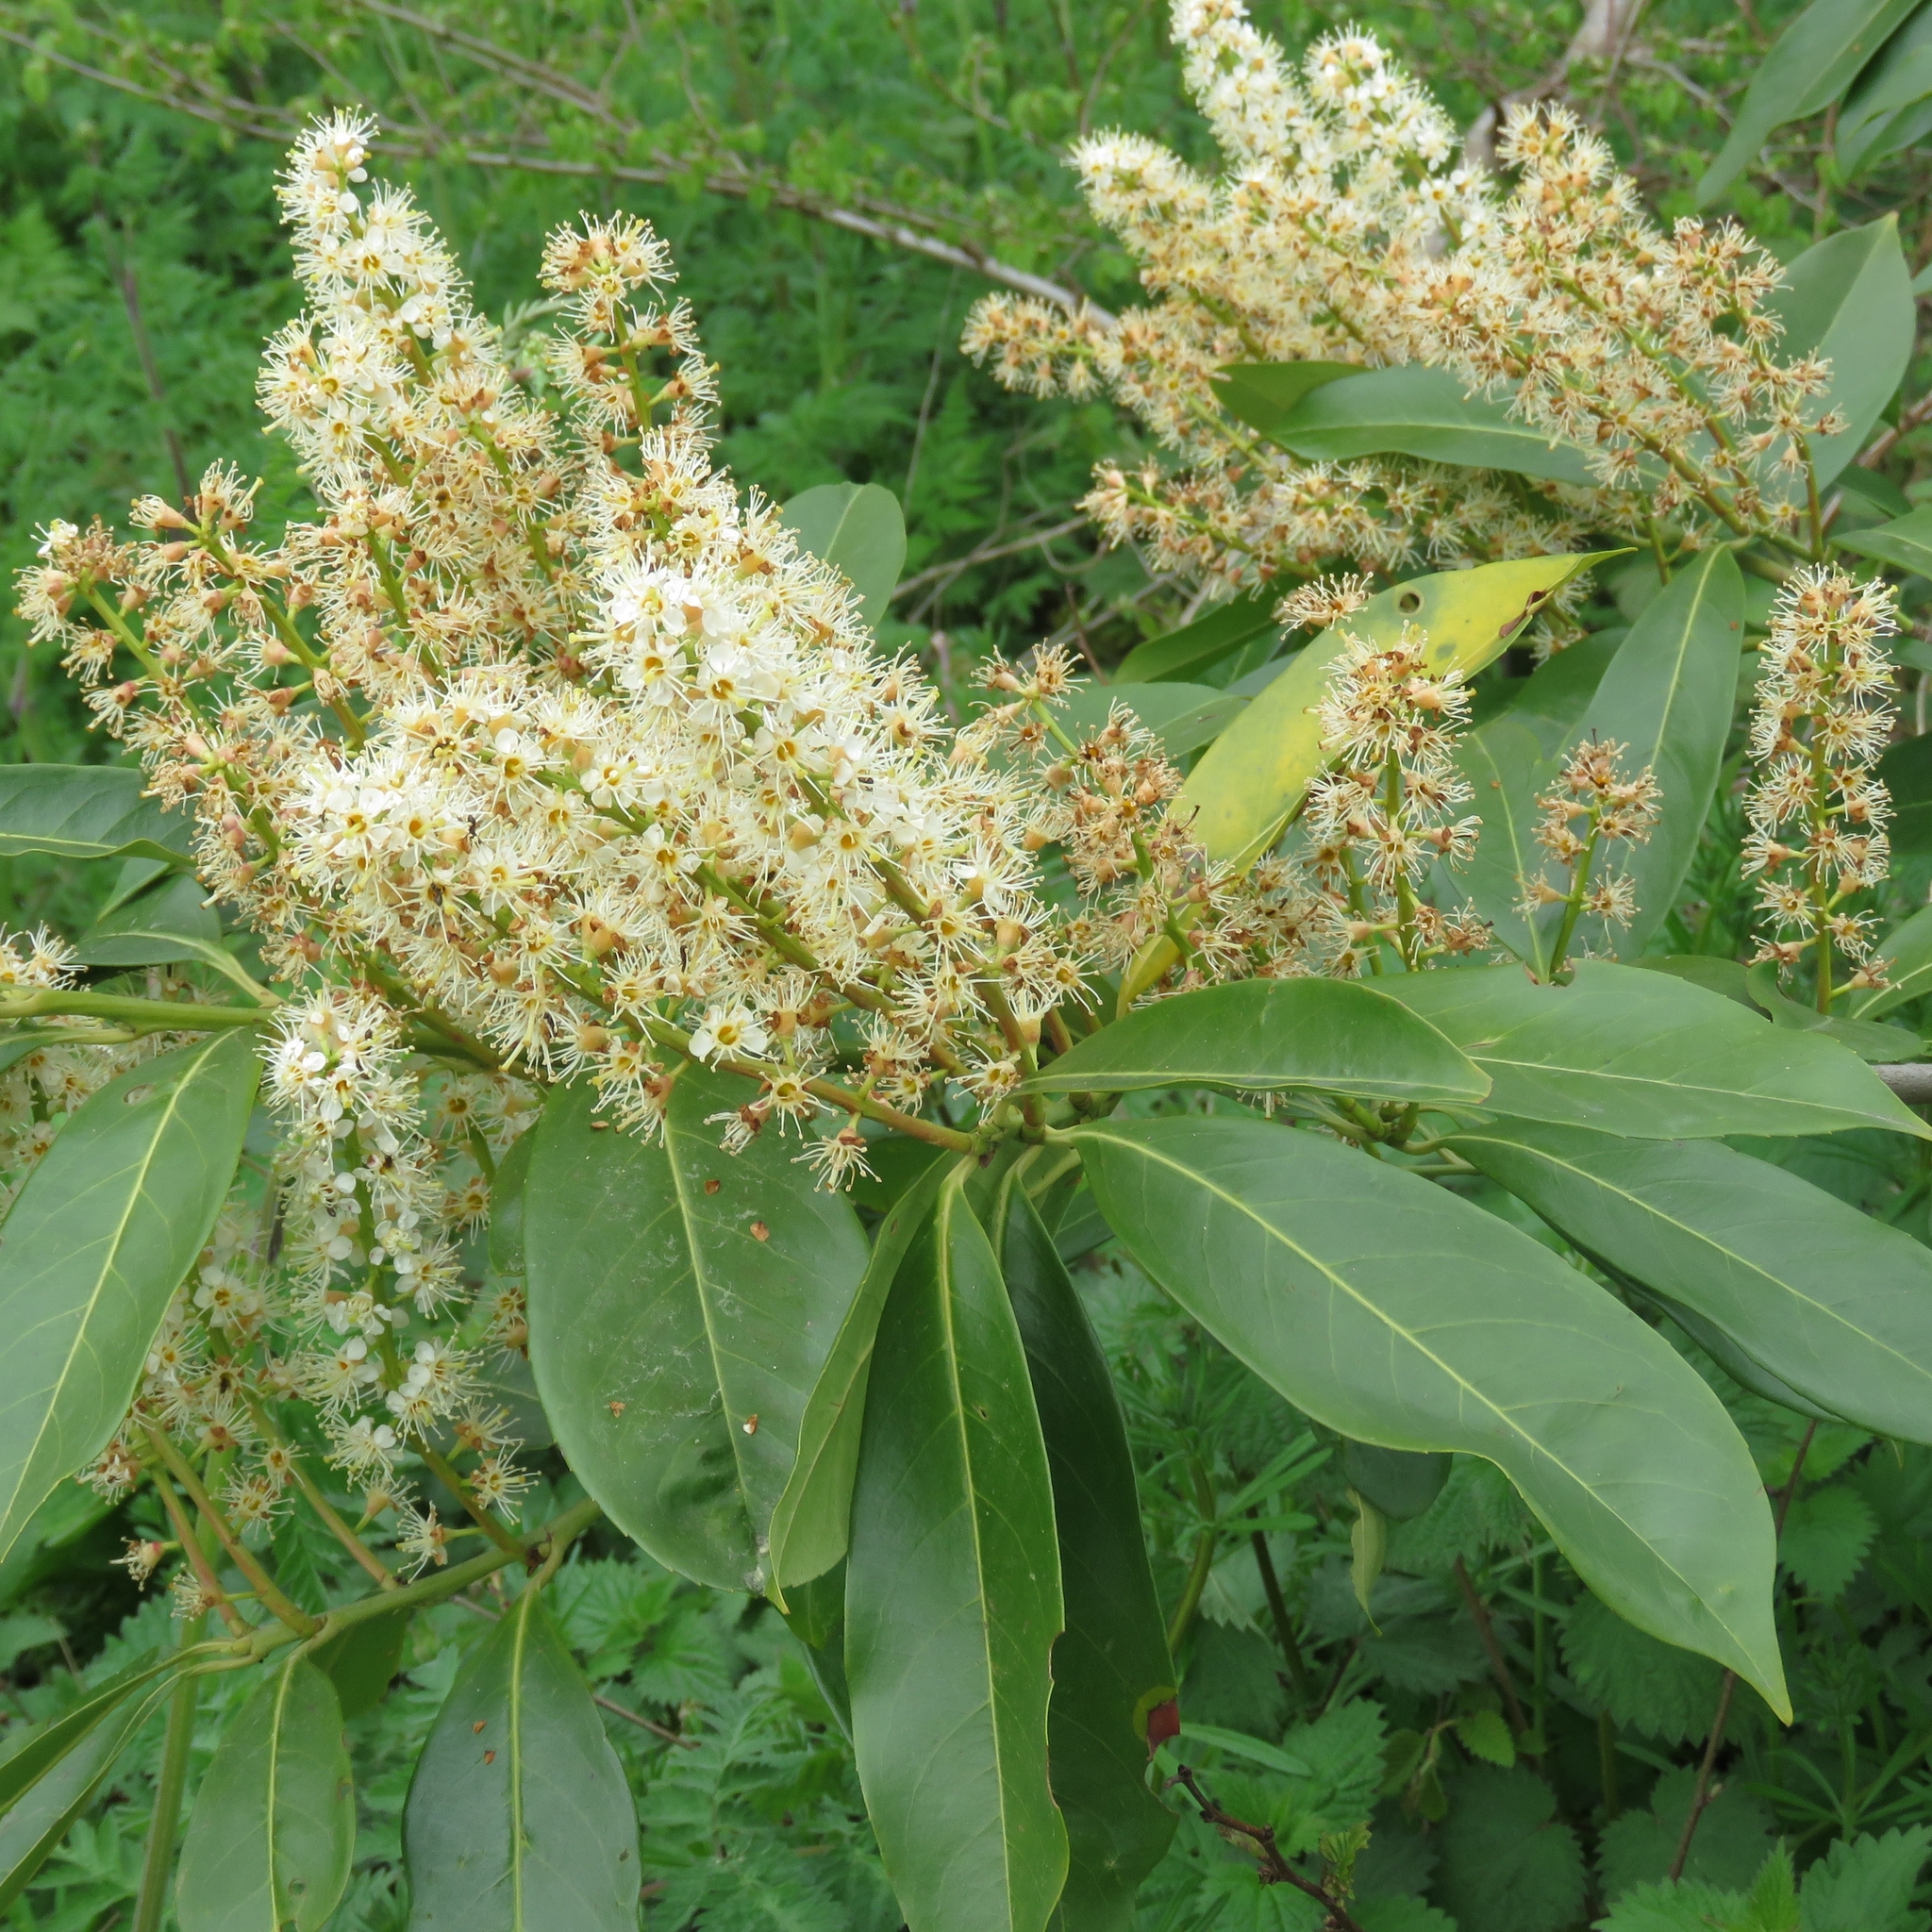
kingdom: Plantae
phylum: Tracheophyta
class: Magnoliopsida
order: Rosales
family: Rosaceae
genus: Prunus
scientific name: Prunus laurocerasus
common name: Cherry laurel
